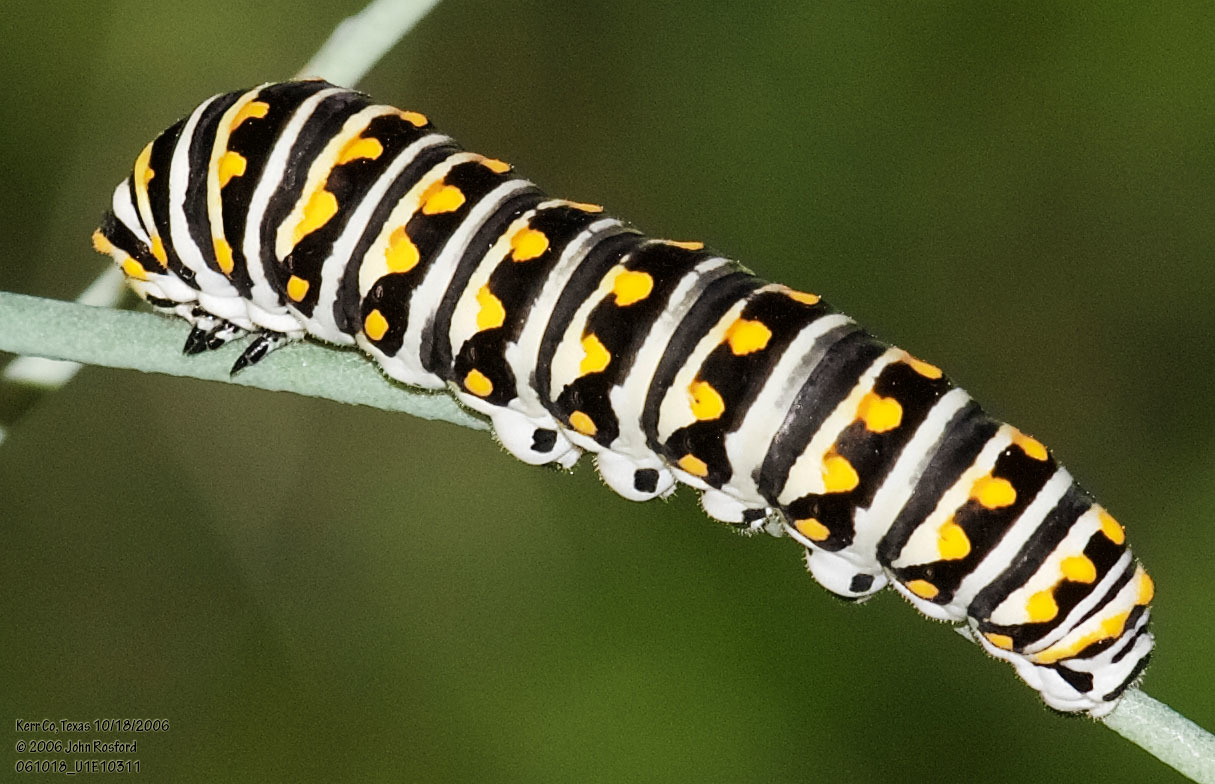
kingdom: Animalia
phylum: Arthropoda
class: Insecta
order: Lepidoptera
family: Papilionidae
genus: Papilio
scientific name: Papilio polyxenes
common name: Black swallowtail
